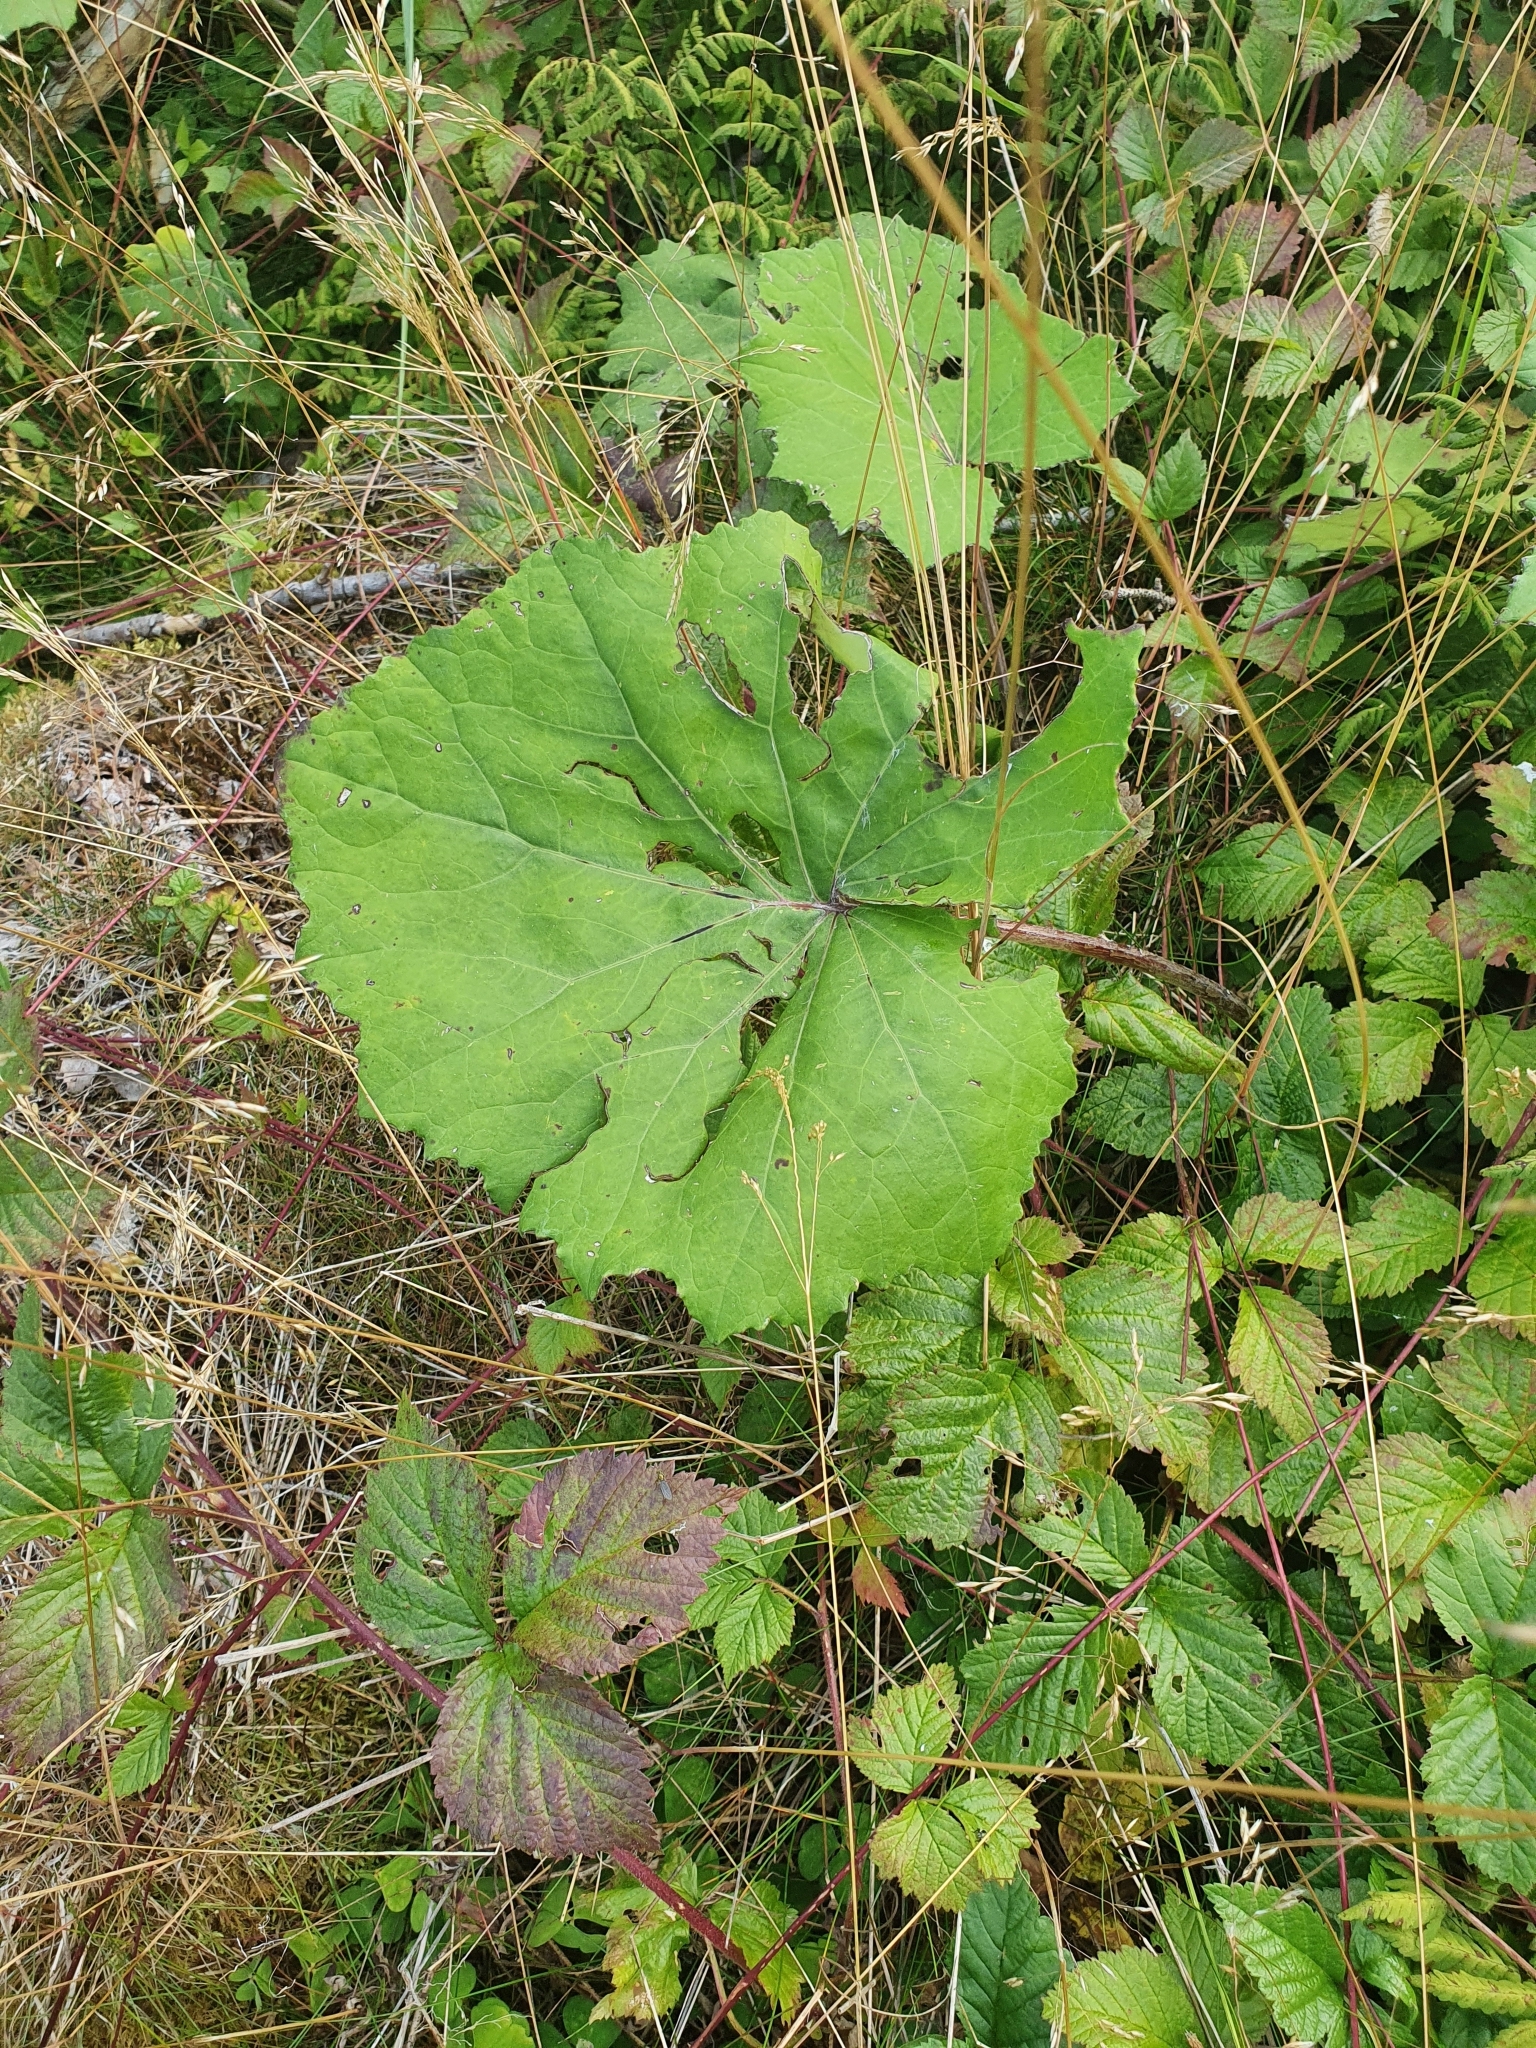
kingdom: Plantae
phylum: Tracheophyta
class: Magnoliopsida
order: Asterales
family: Asteraceae
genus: Tussilago
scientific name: Tussilago farfara
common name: Coltsfoot
